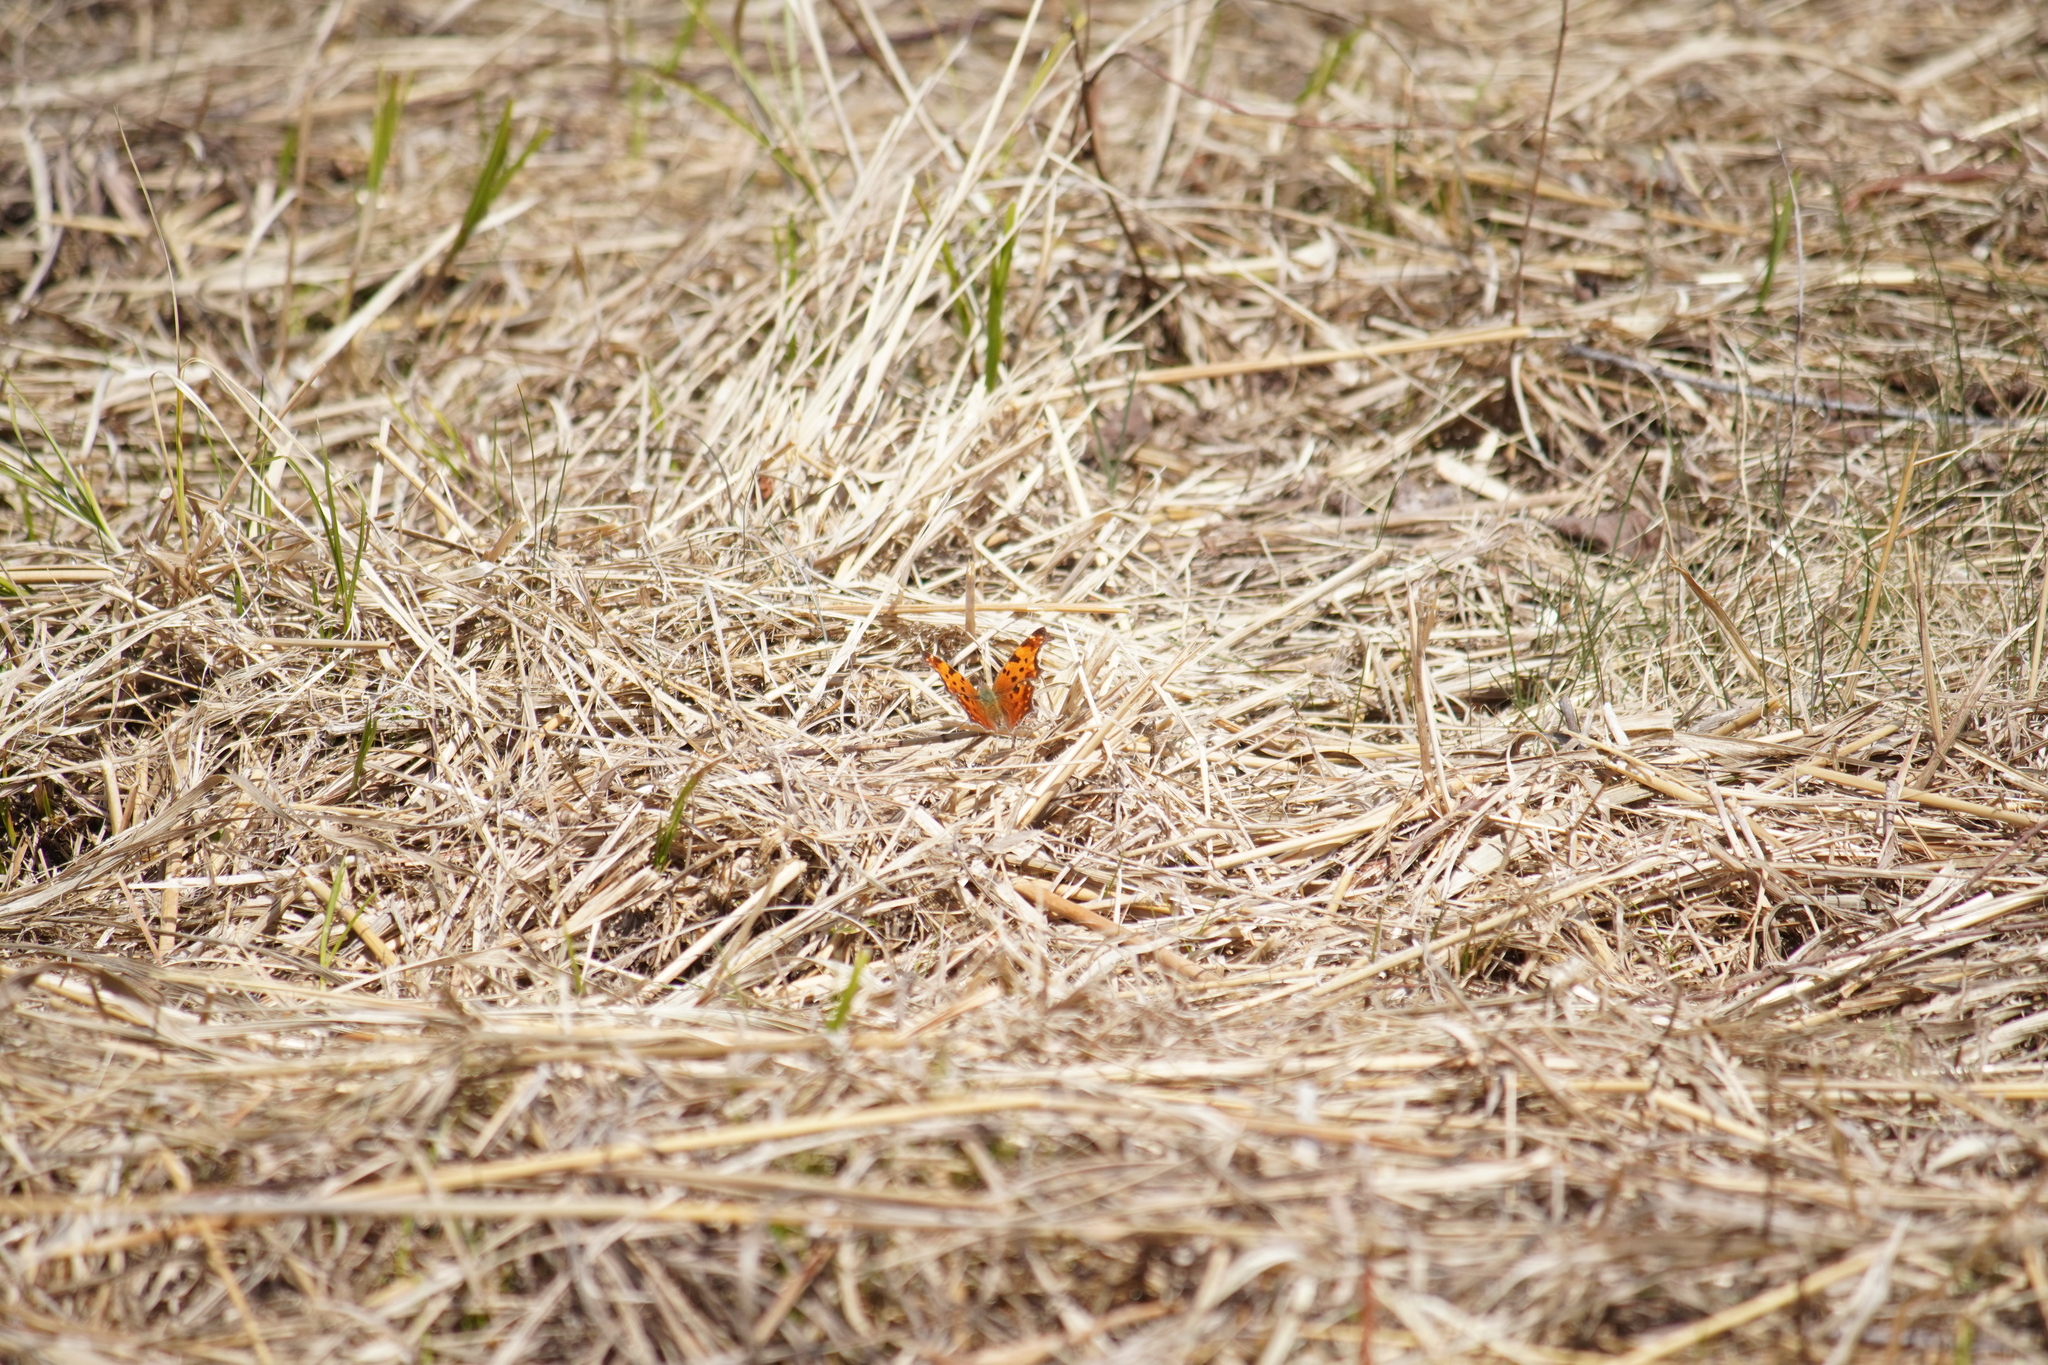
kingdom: Animalia
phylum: Arthropoda
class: Insecta
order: Lepidoptera
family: Nymphalidae
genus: Polygonia
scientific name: Polygonia comma
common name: Eastern comma
